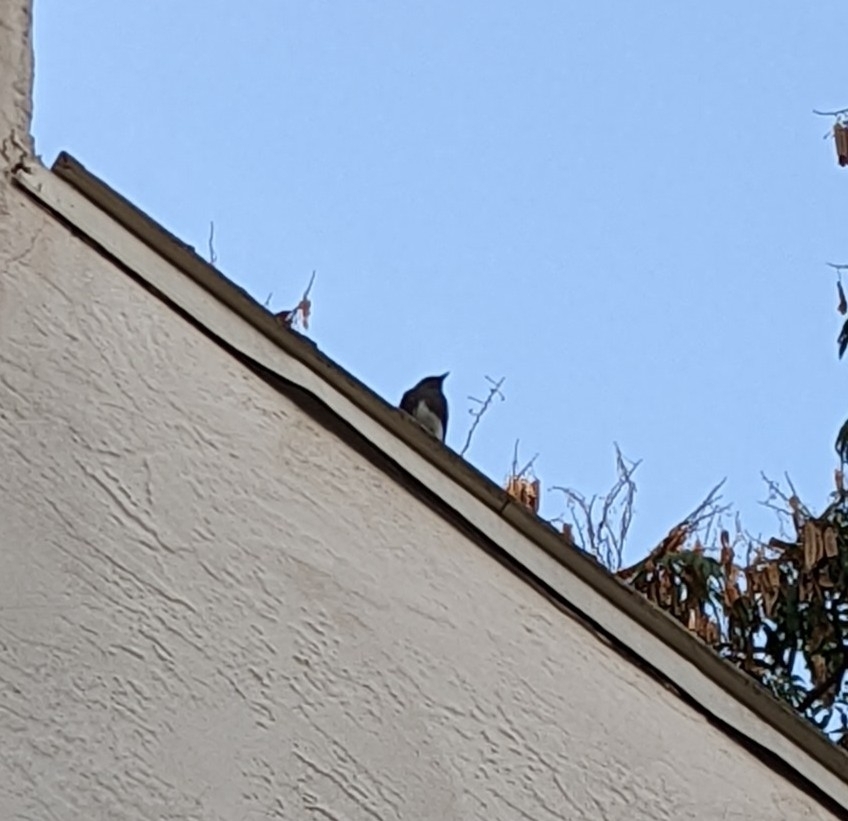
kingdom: Animalia
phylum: Chordata
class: Aves
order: Passeriformes
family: Tyrannidae
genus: Sayornis
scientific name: Sayornis nigricans
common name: Black phoebe
